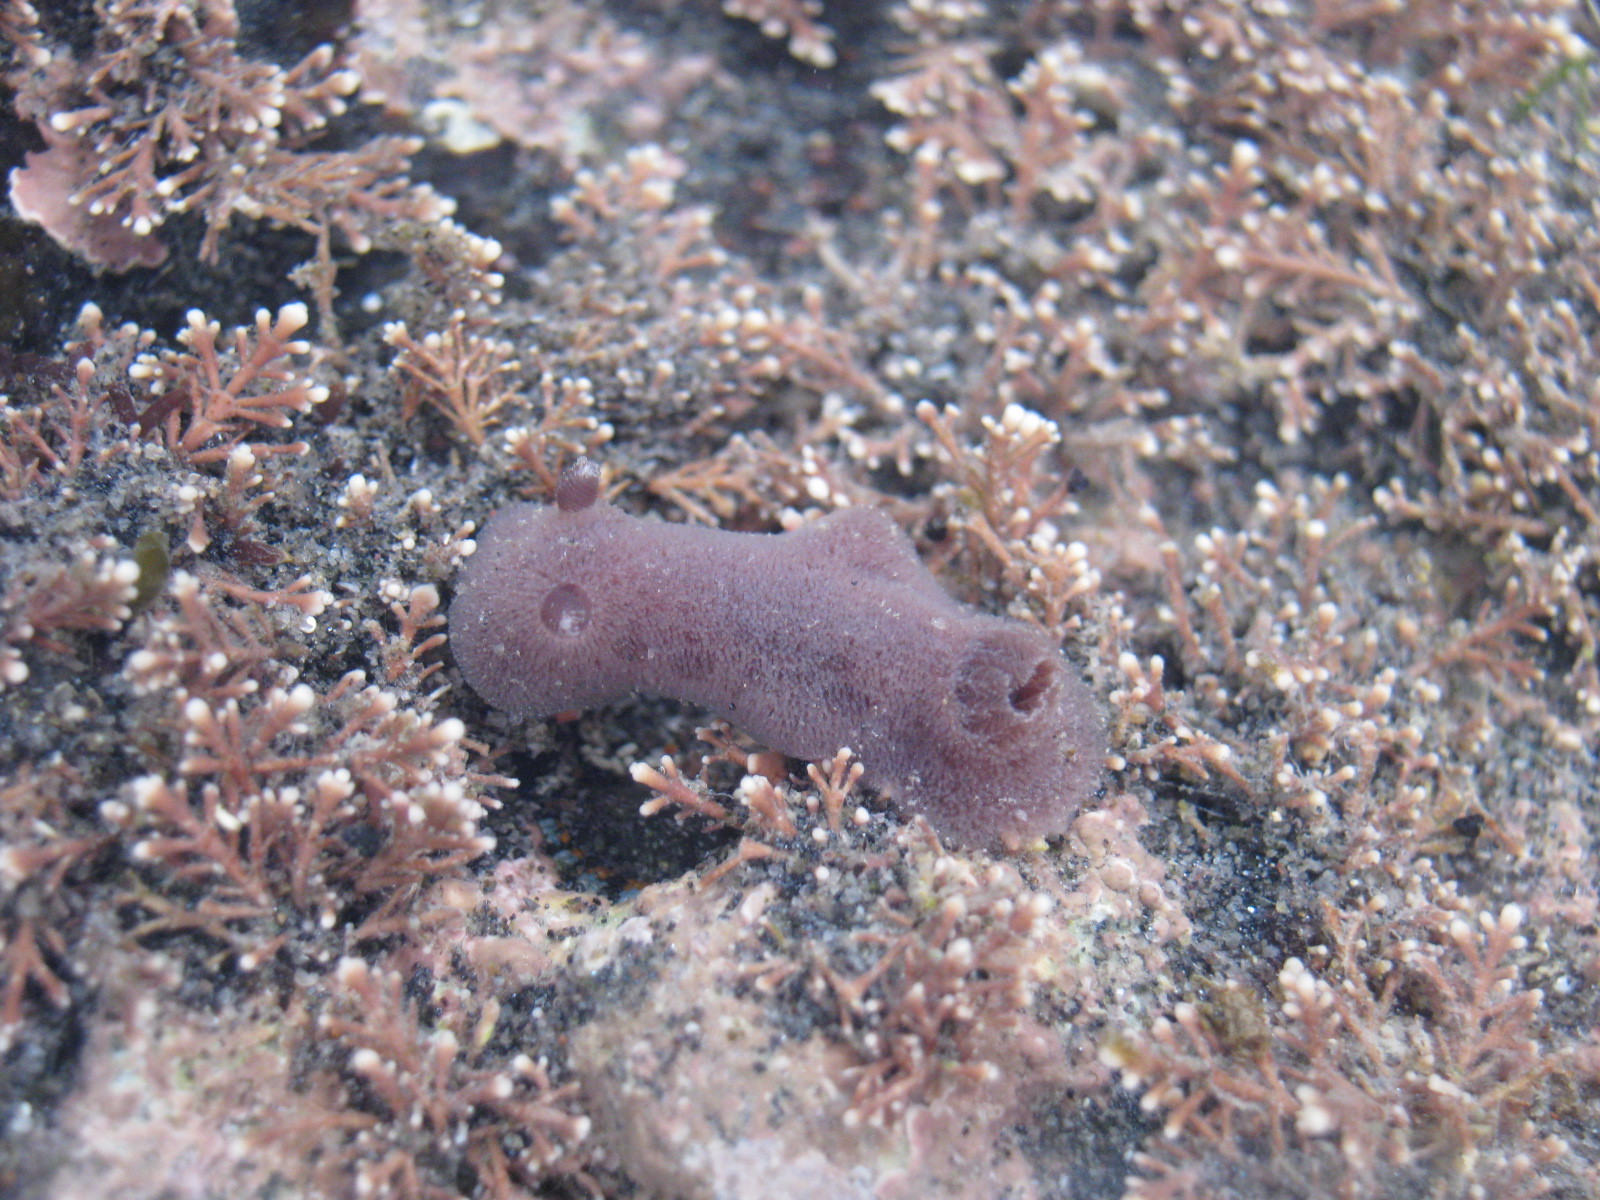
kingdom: Animalia
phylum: Mollusca
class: Gastropoda
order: Nudibranchia
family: Discodorididae
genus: Jorunna
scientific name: Jorunna ramicola
